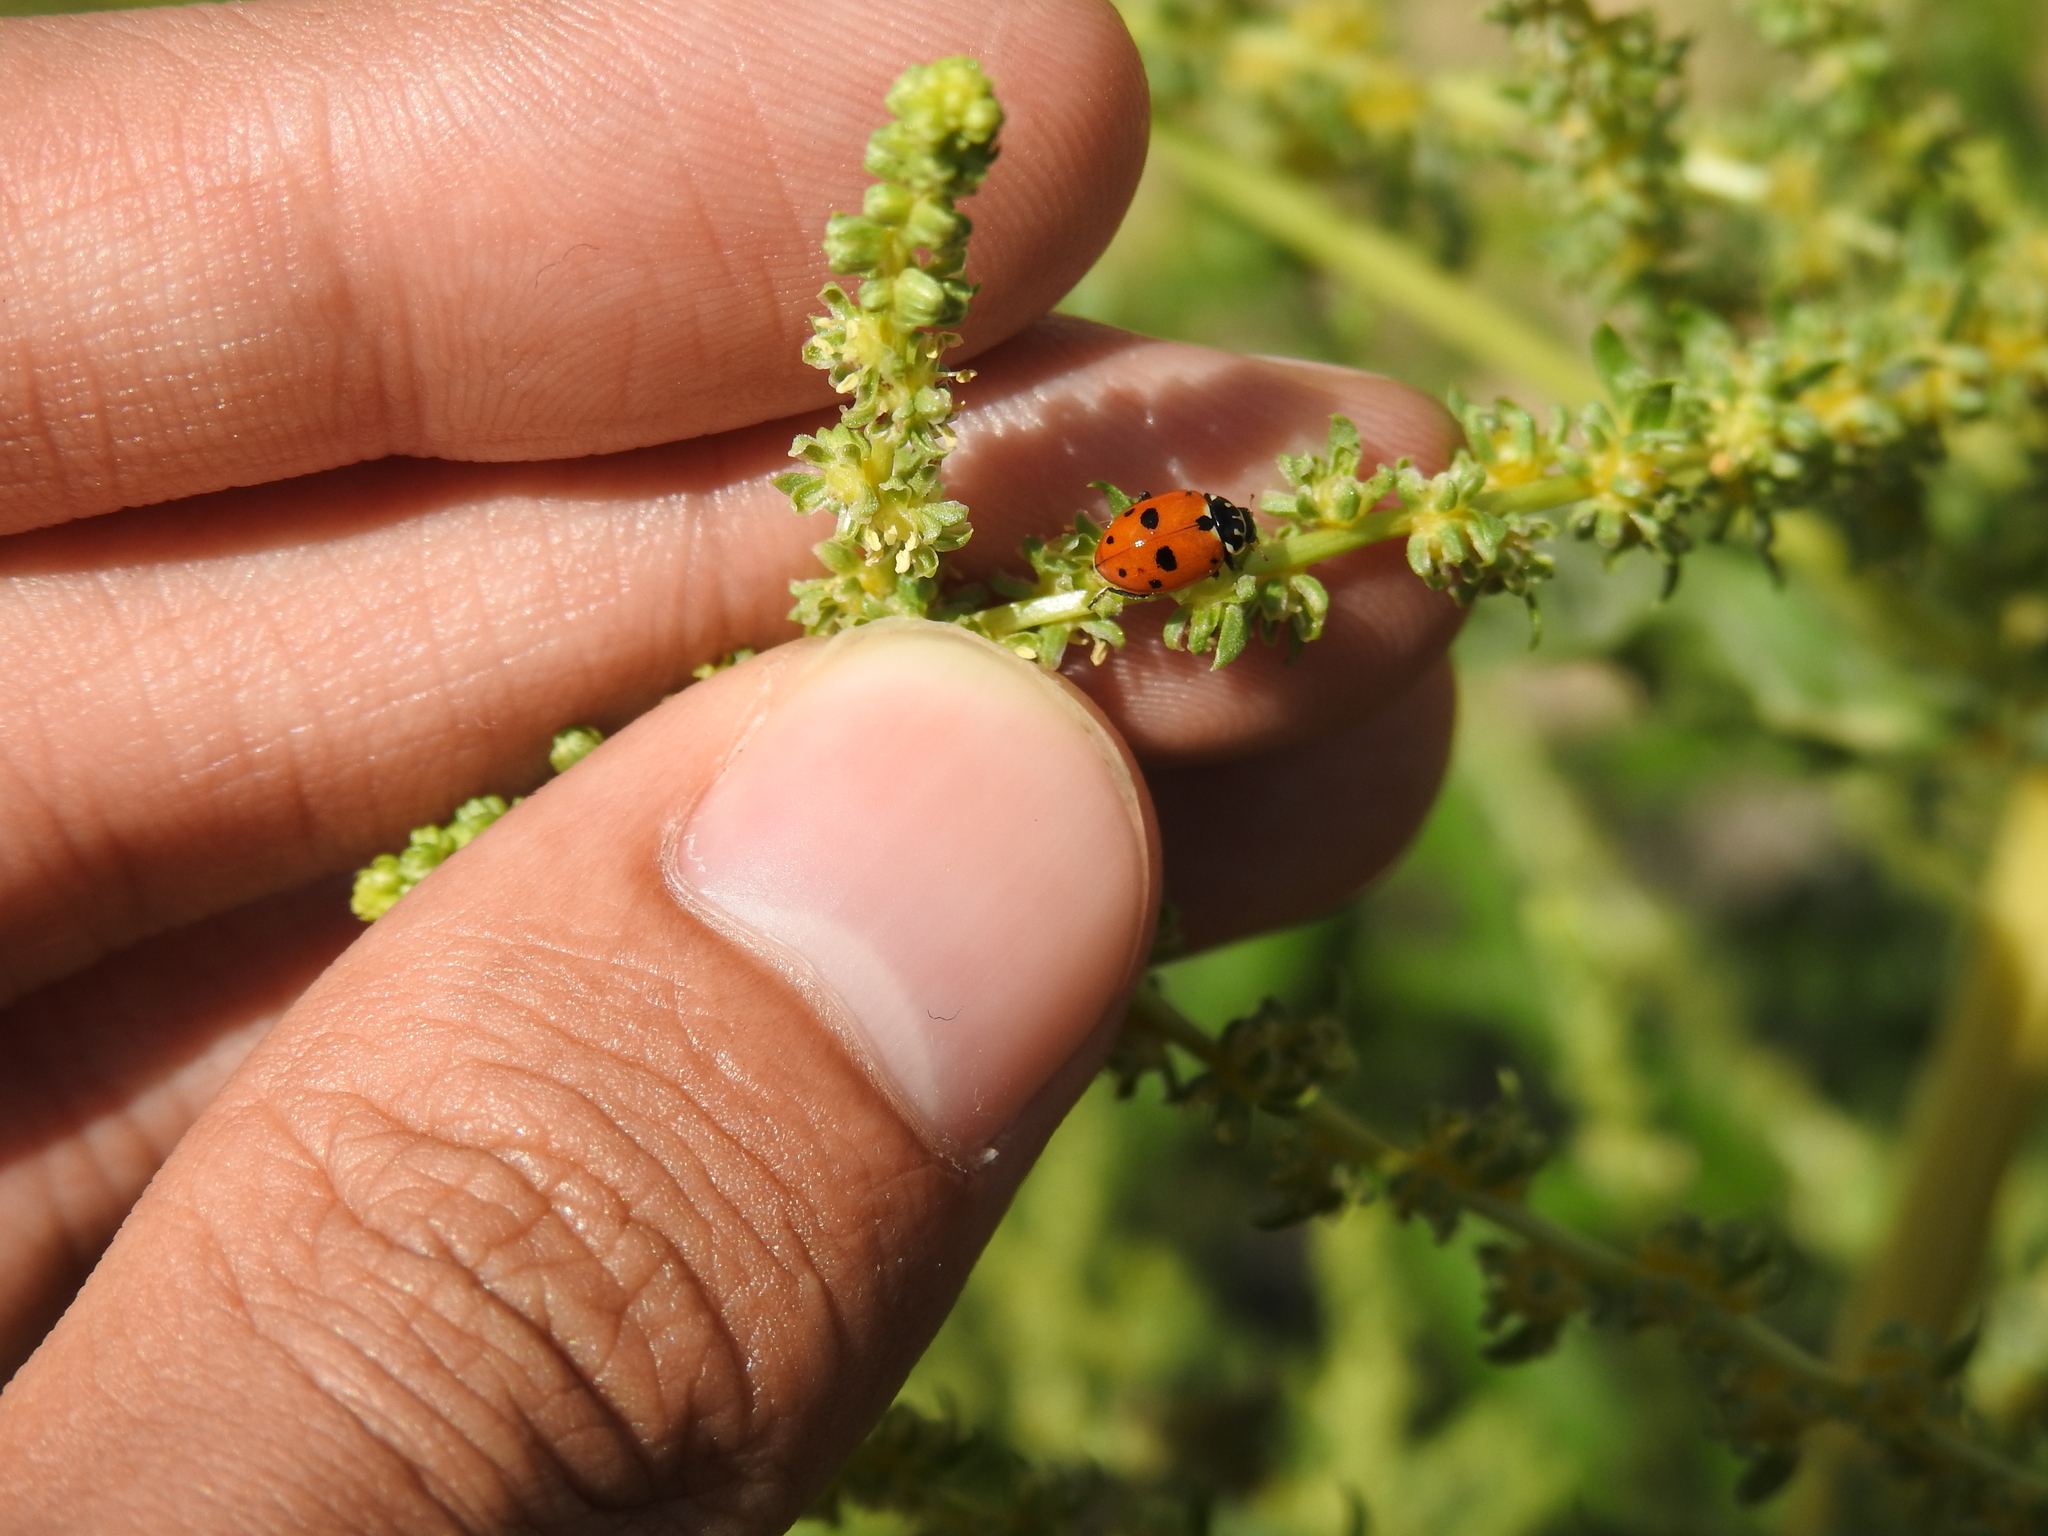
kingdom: Animalia
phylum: Arthropoda
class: Insecta
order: Coleoptera
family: Coccinellidae
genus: Hippodamia
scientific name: Hippodamia variegata
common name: Ladybird beetle
